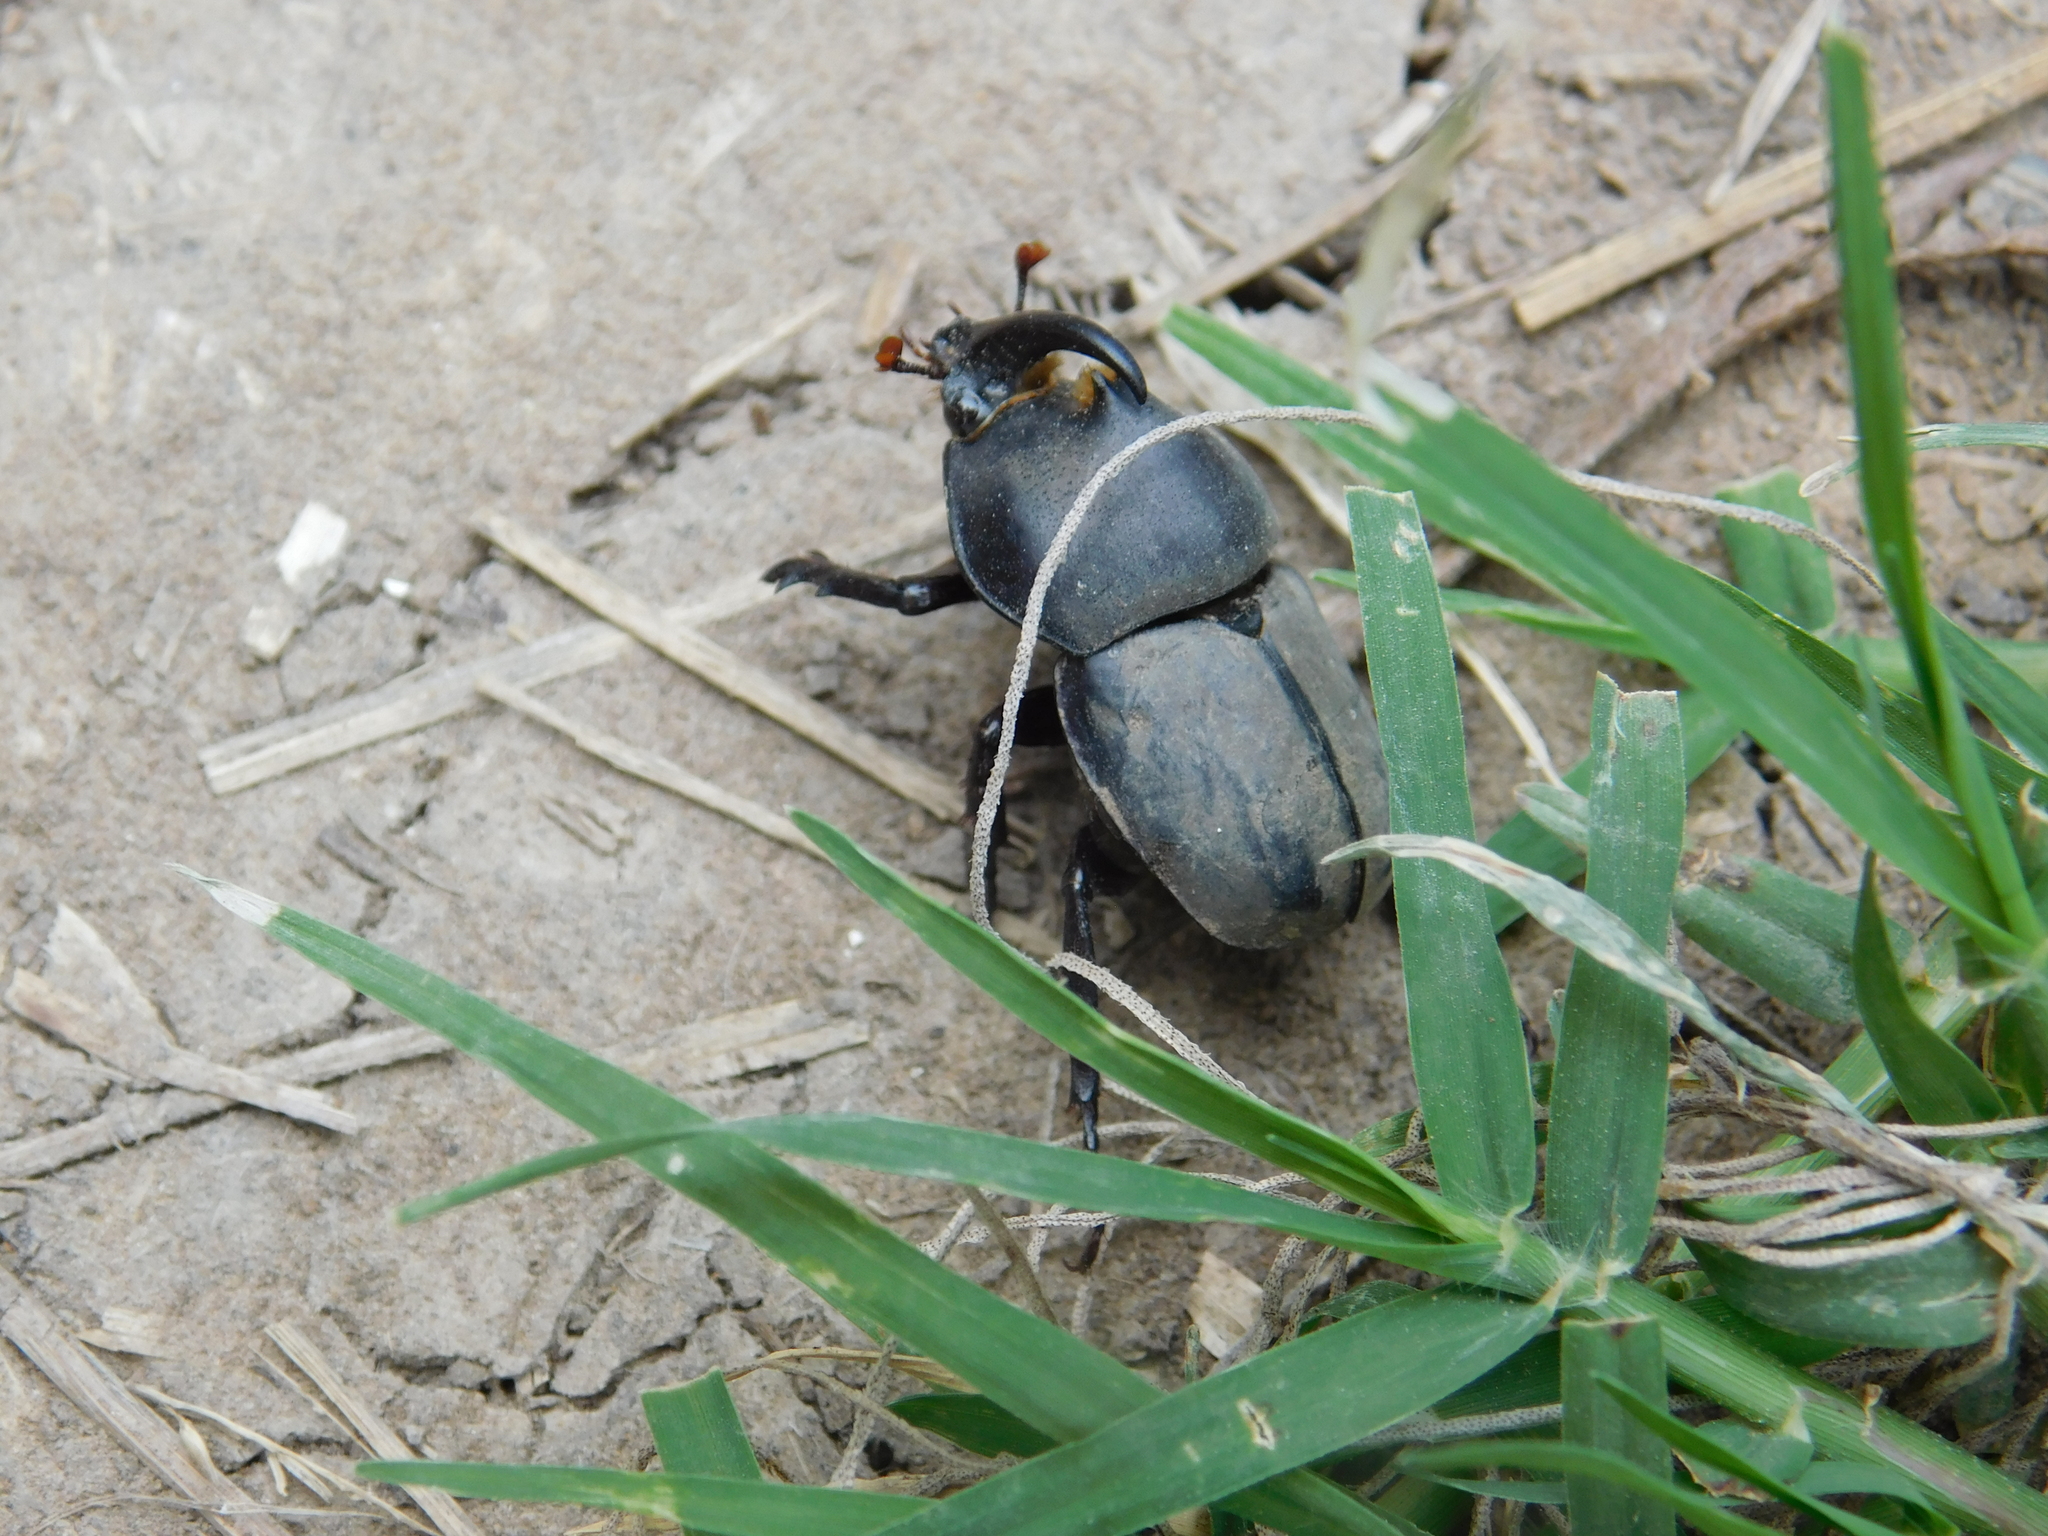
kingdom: Animalia
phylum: Arthropoda
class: Insecta
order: Coleoptera
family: Scarabaeidae
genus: Diloboderus
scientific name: Diloboderus abderus
